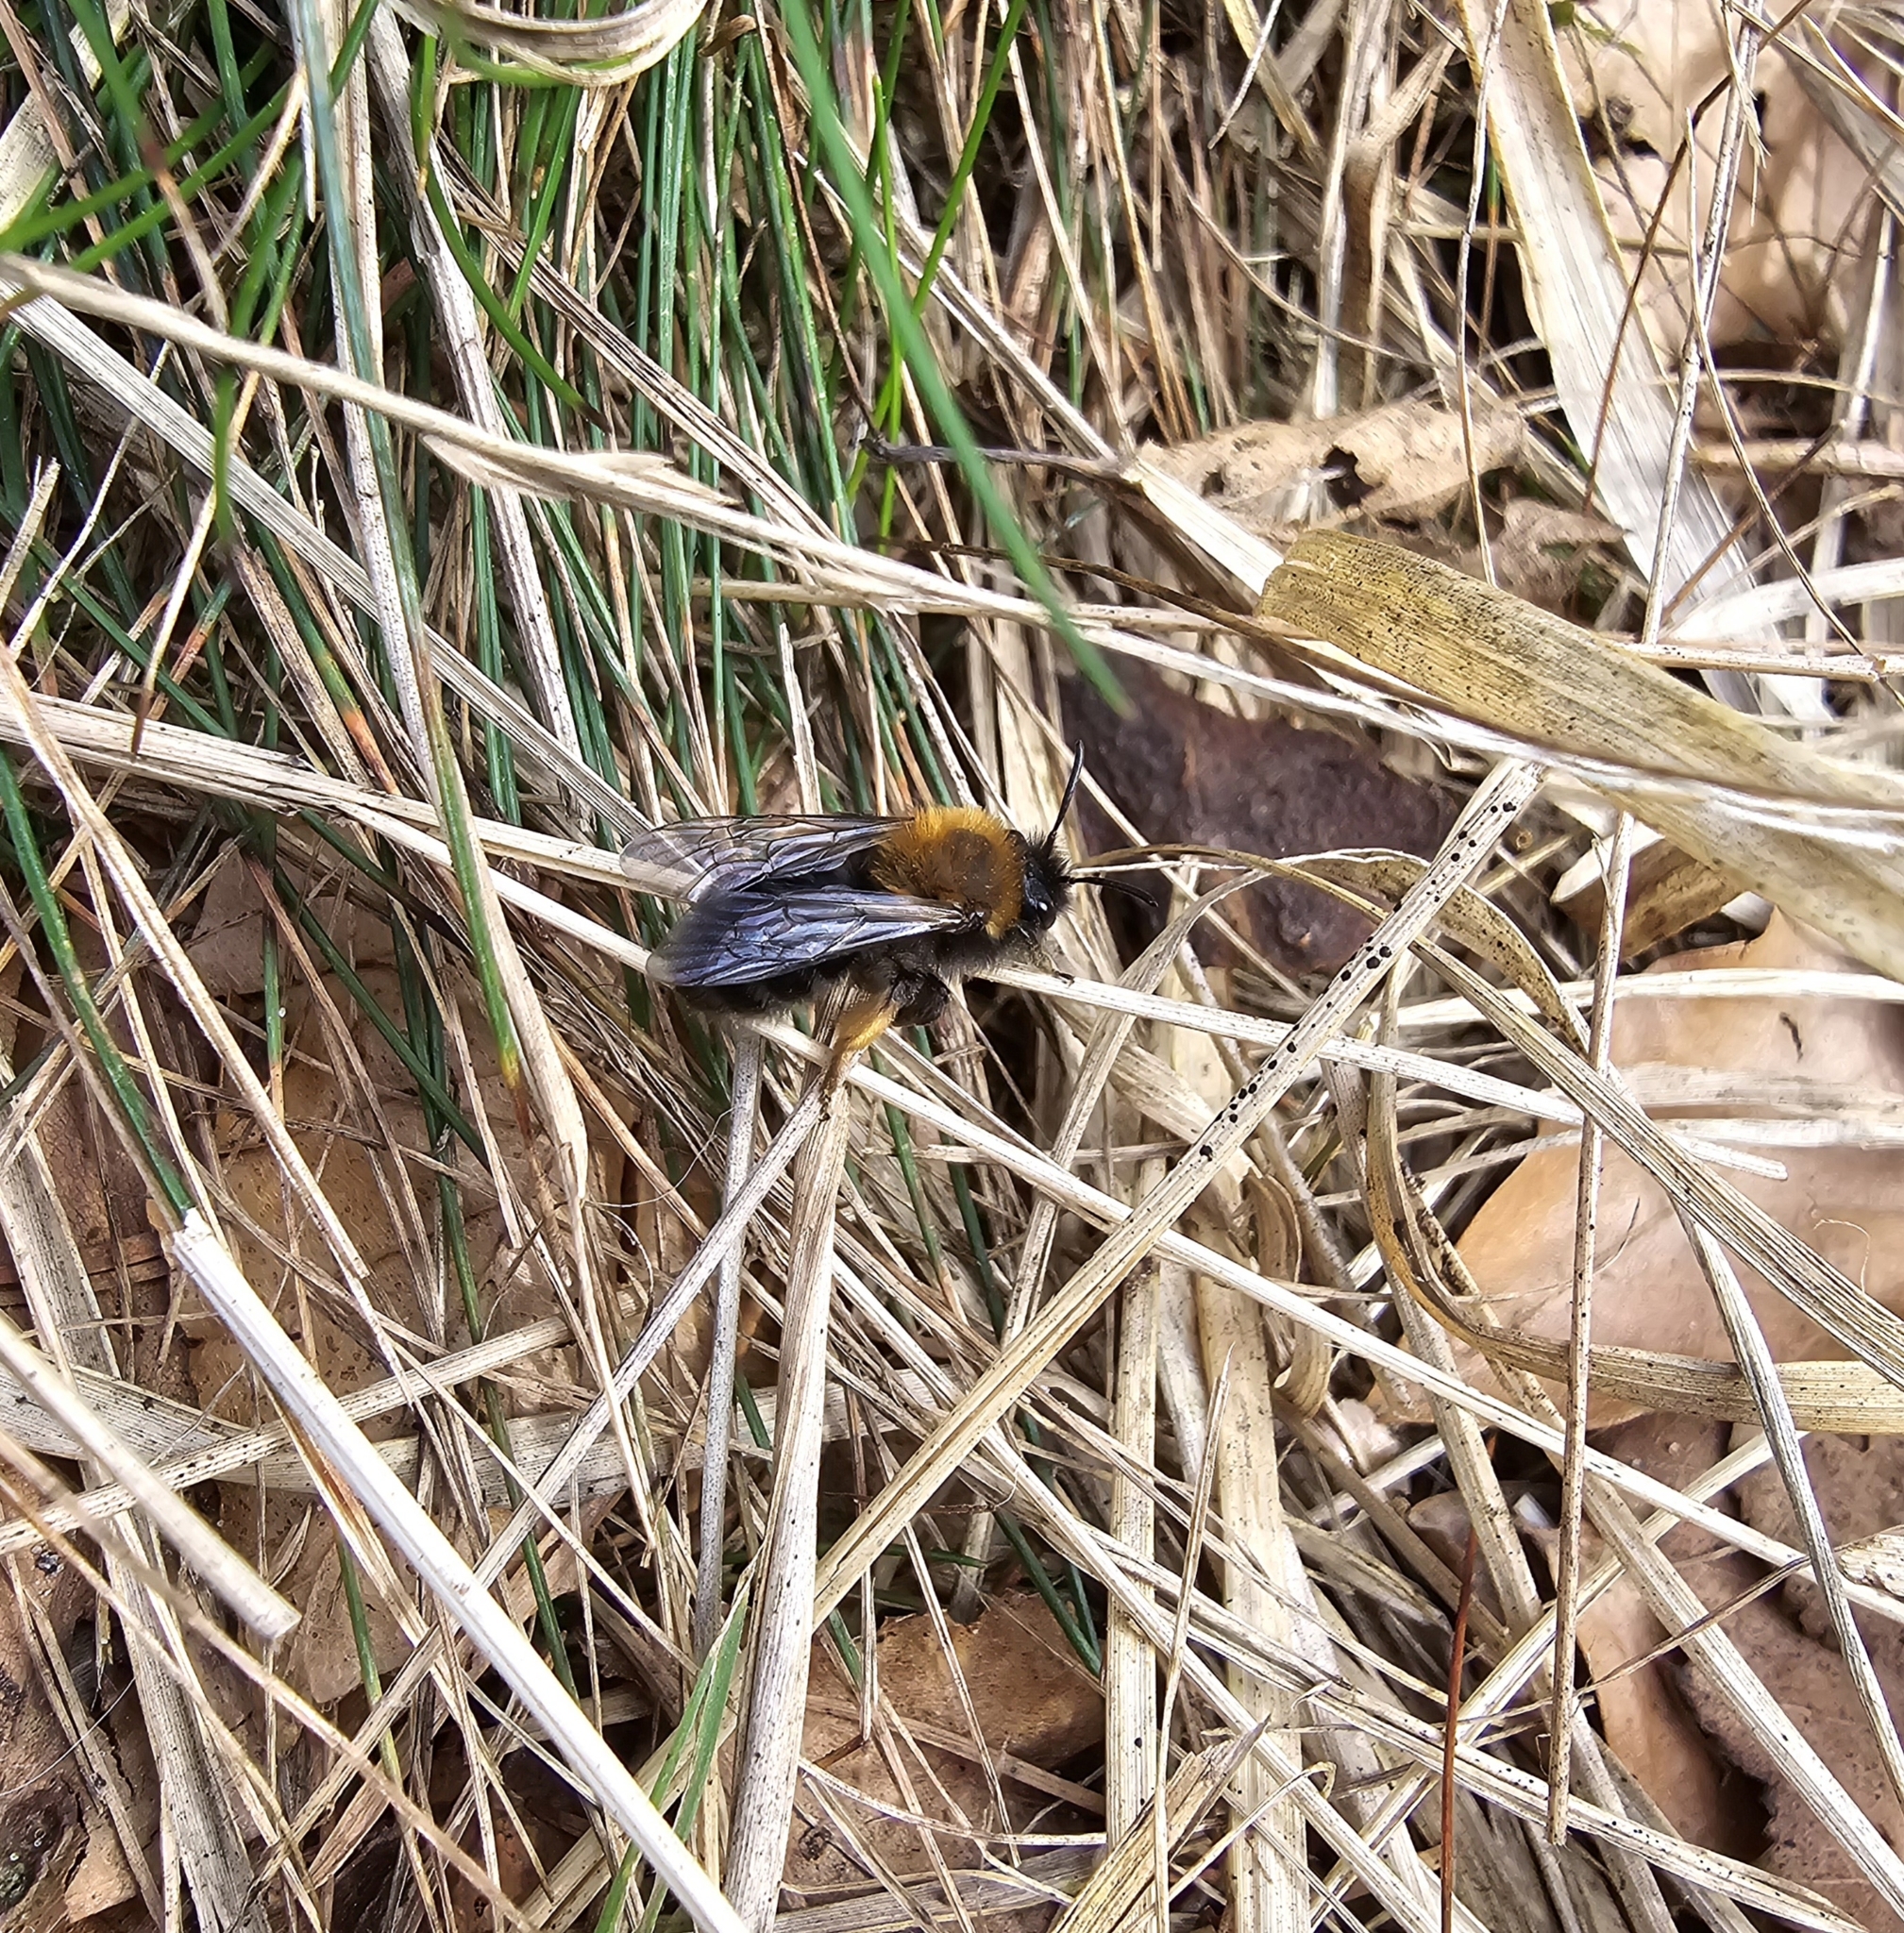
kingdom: Animalia
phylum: Arthropoda
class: Insecta
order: Hymenoptera
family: Andrenidae
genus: Andrena
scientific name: Andrena clarkella
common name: Clarke's mining bee
